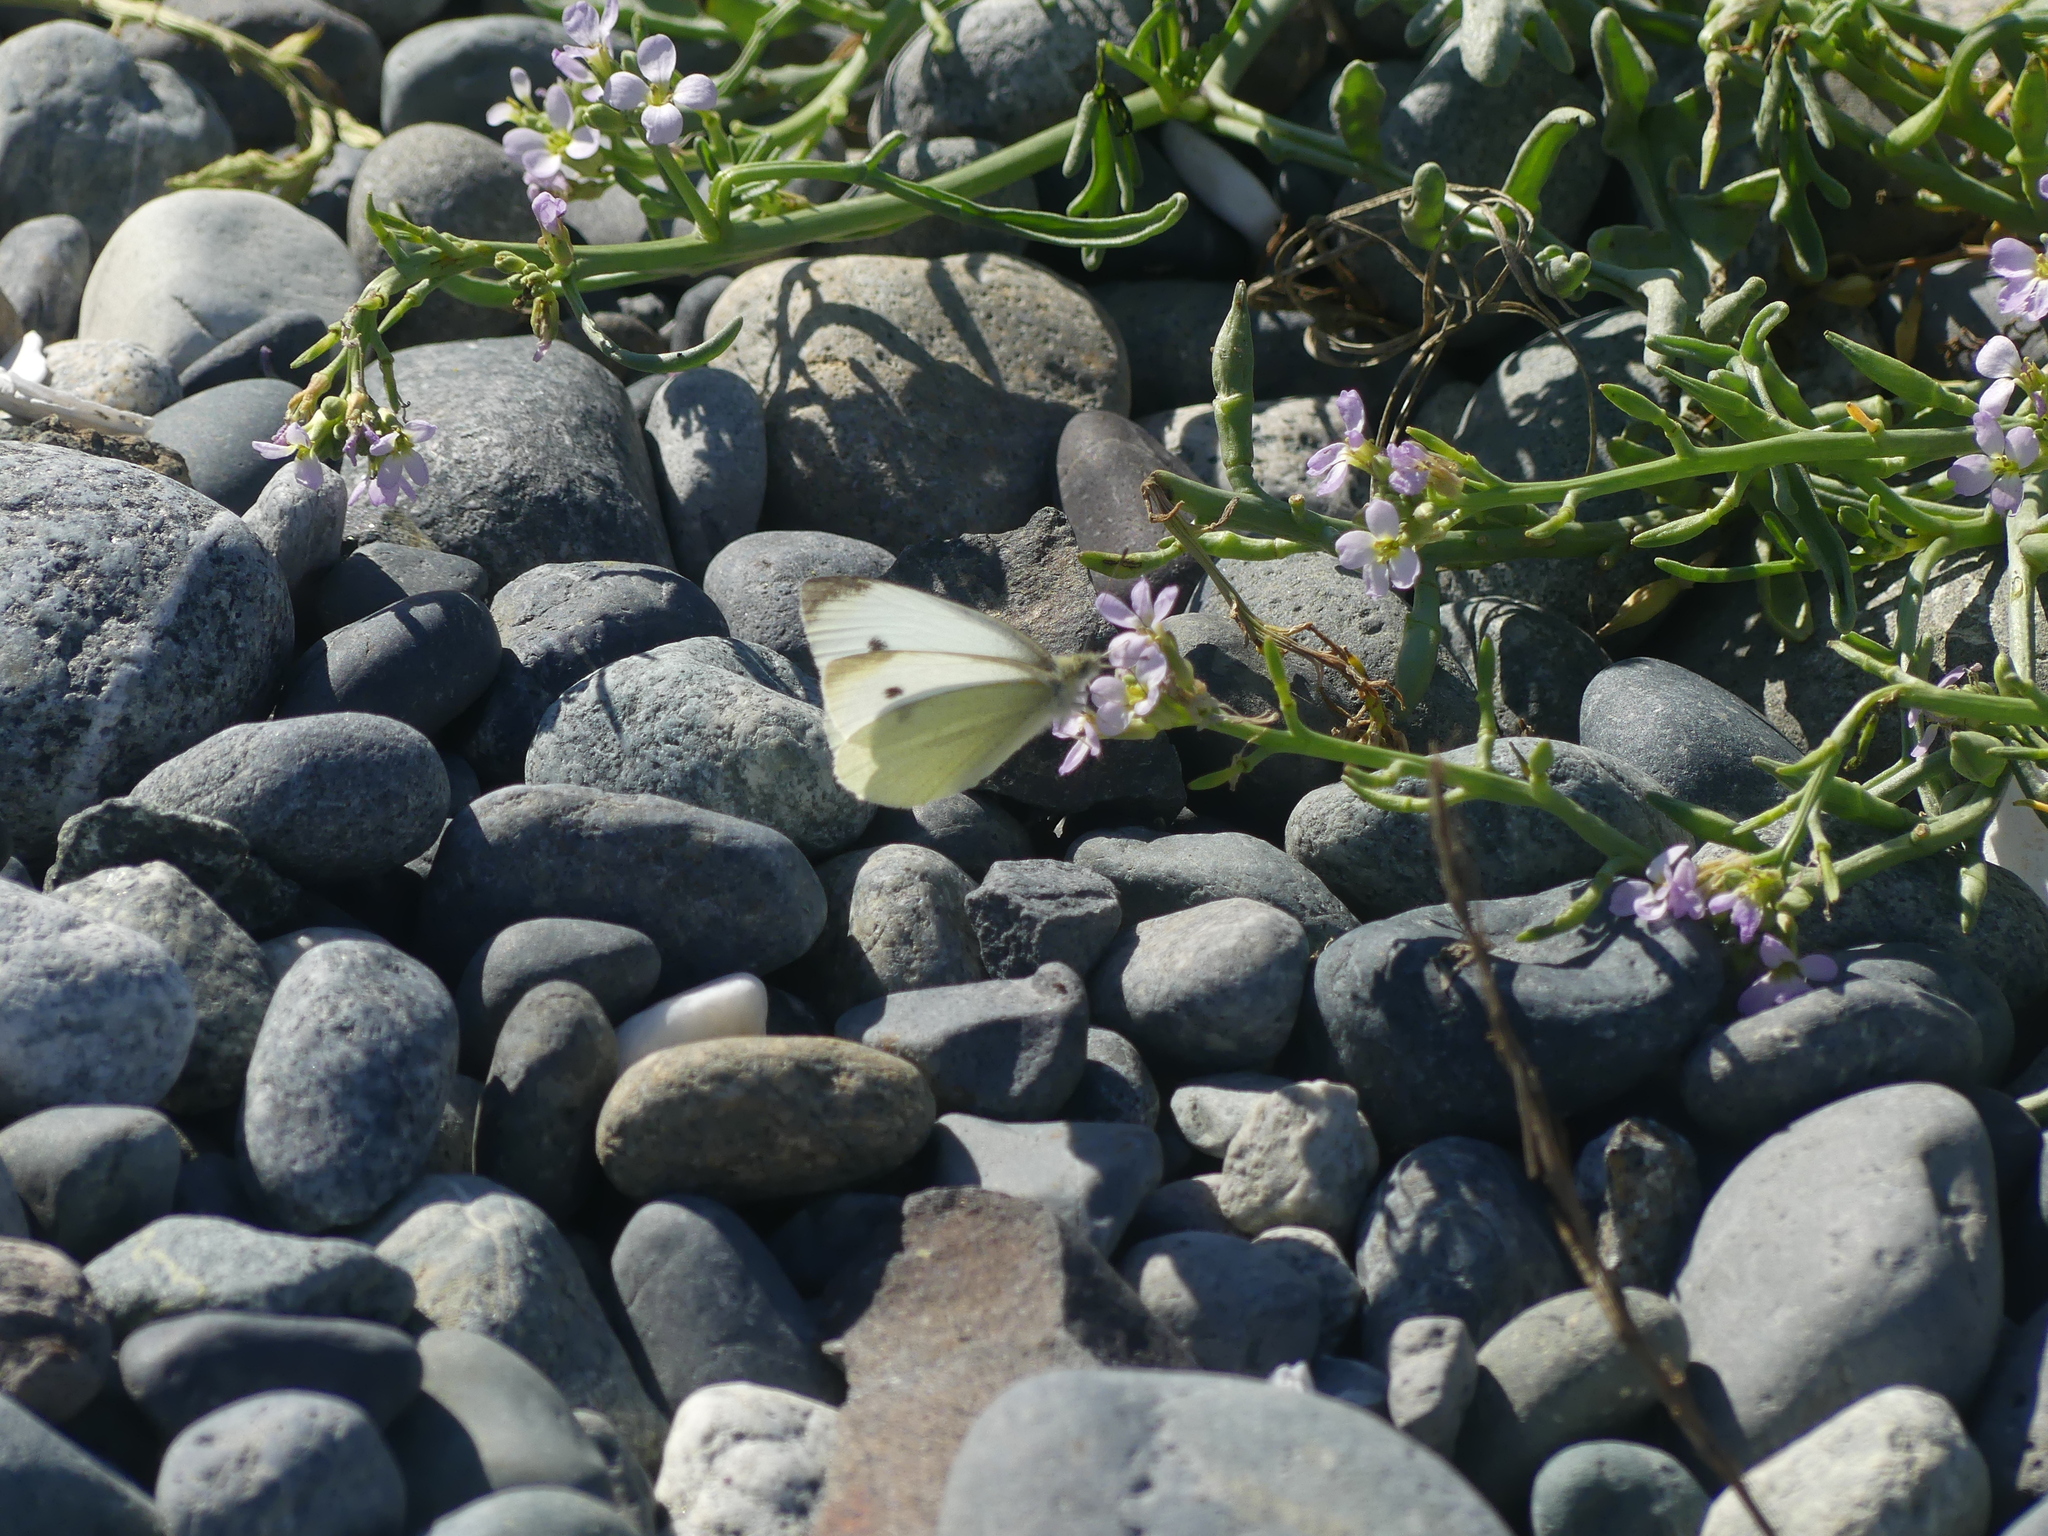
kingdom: Animalia
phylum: Arthropoda
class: Insecta
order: Lepidoptera
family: Pieridae
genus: Pieris
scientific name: Pieris rapae
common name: Small white
